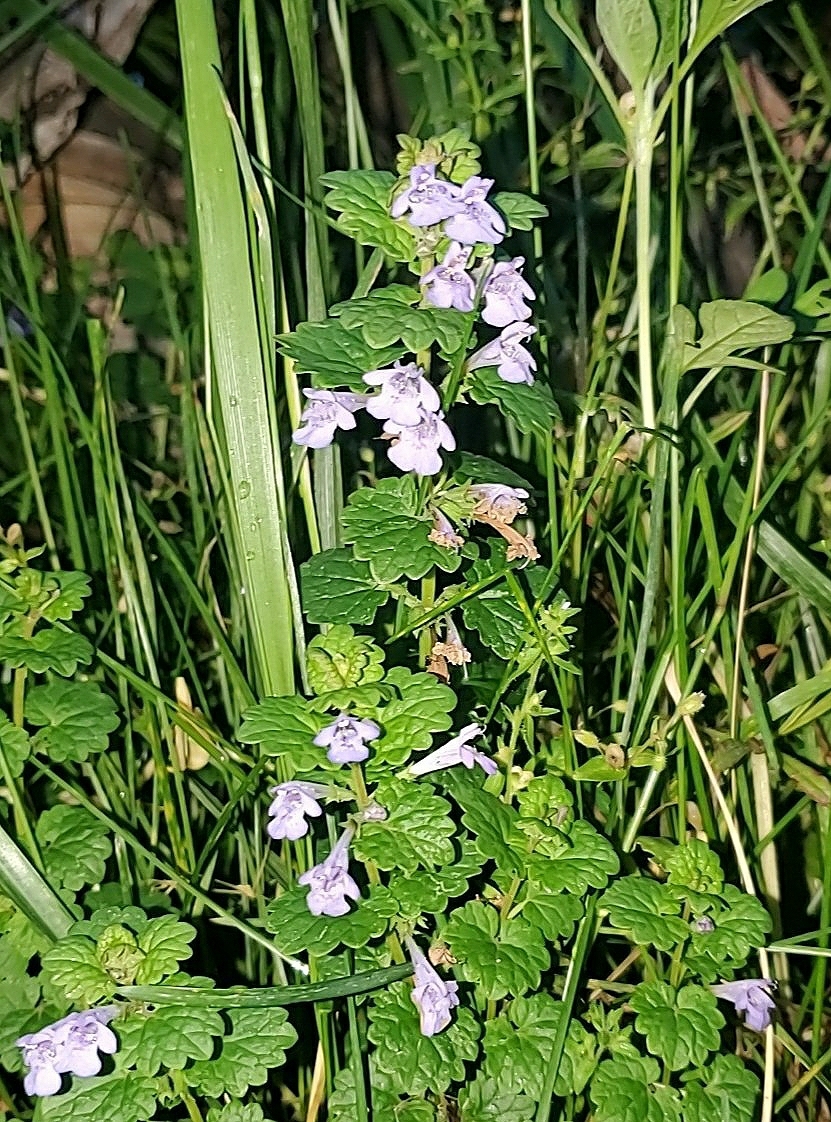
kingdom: Plantae
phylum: Tracheophyta
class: Magnoliopsida
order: Lamiales
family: Lamiaceae
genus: Glechoma
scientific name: Glechoma hederacea
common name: Ground ivy
